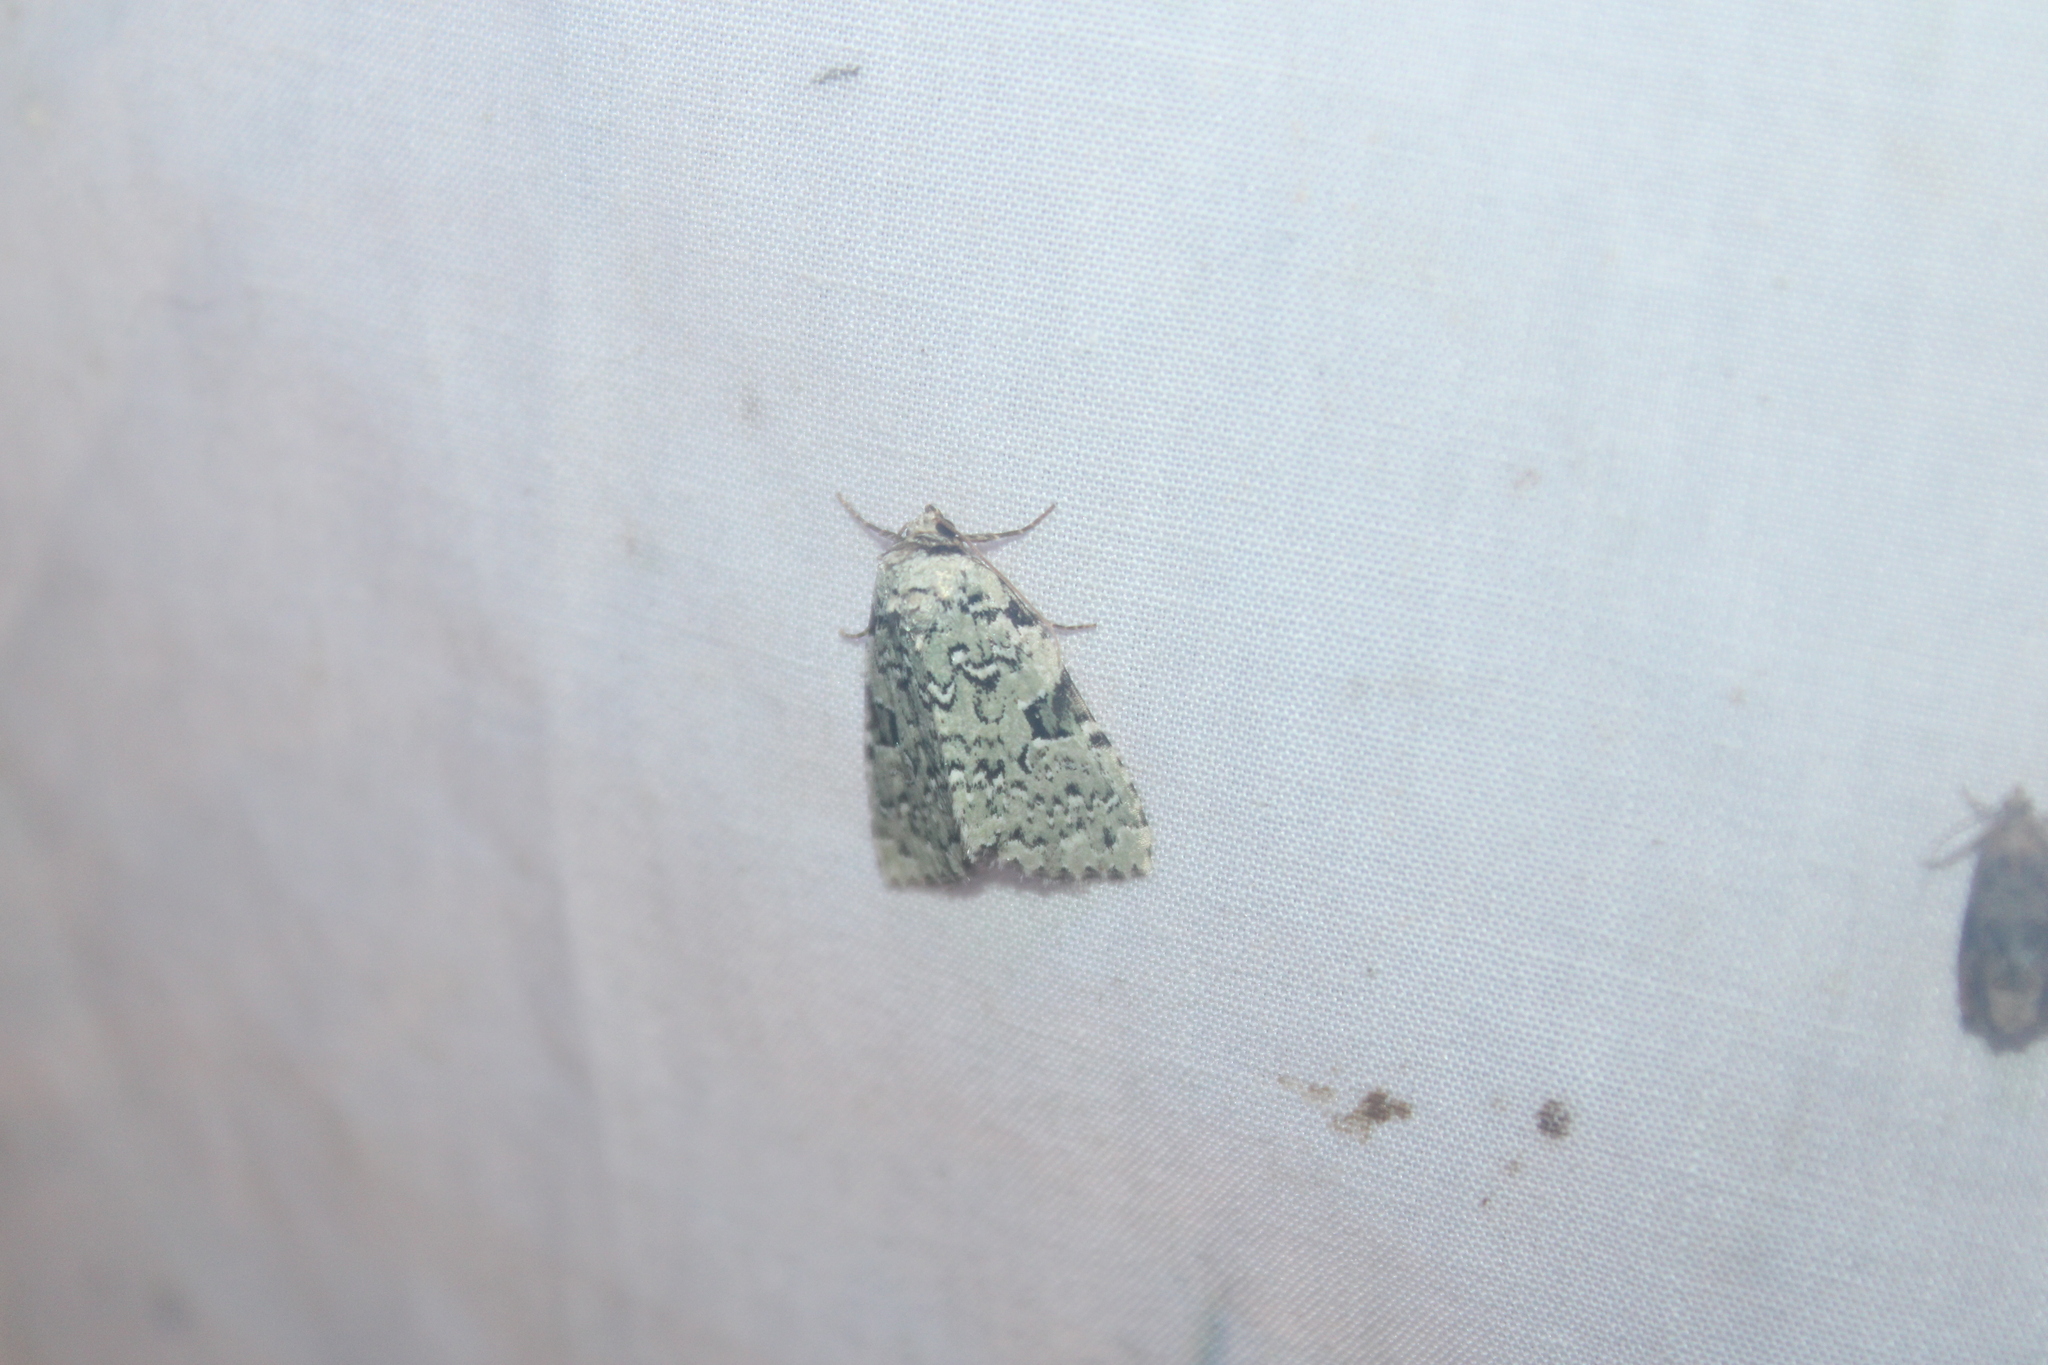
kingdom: Animalia
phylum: Arthropoda
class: Insecta
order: Lepidoptera
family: Noctuidae
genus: Leuconycta
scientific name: Leuconycta diphteroides
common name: Green leuconycta moth
